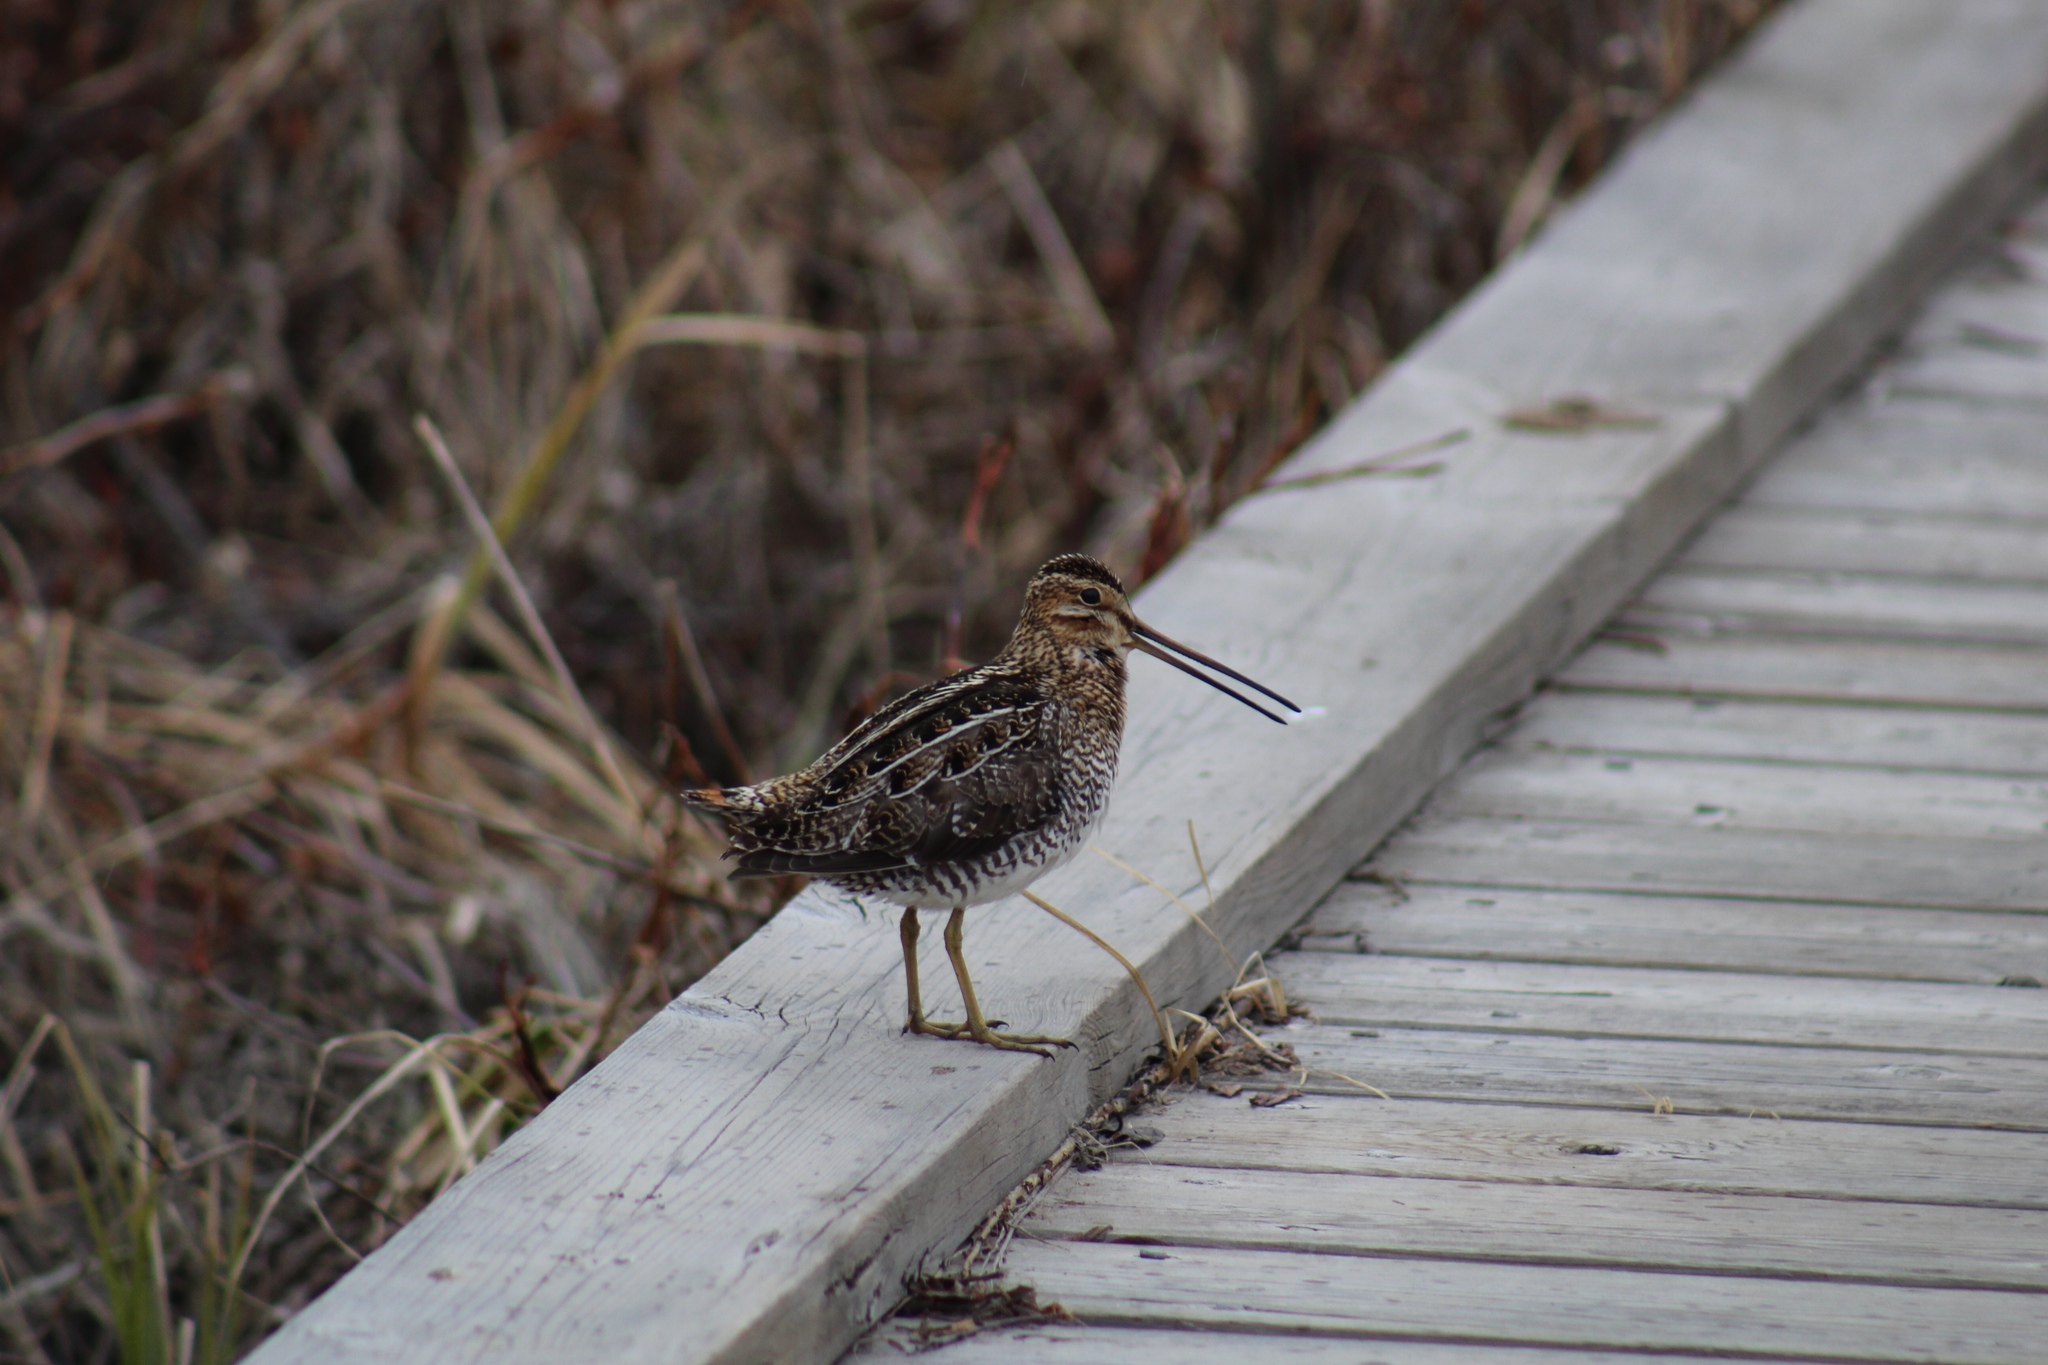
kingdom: Animalia
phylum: Chordata
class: Aves
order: Charadriiformes
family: Scolopacidae
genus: Gallinago
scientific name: Gallinago delicata
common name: Wilson's snipe
